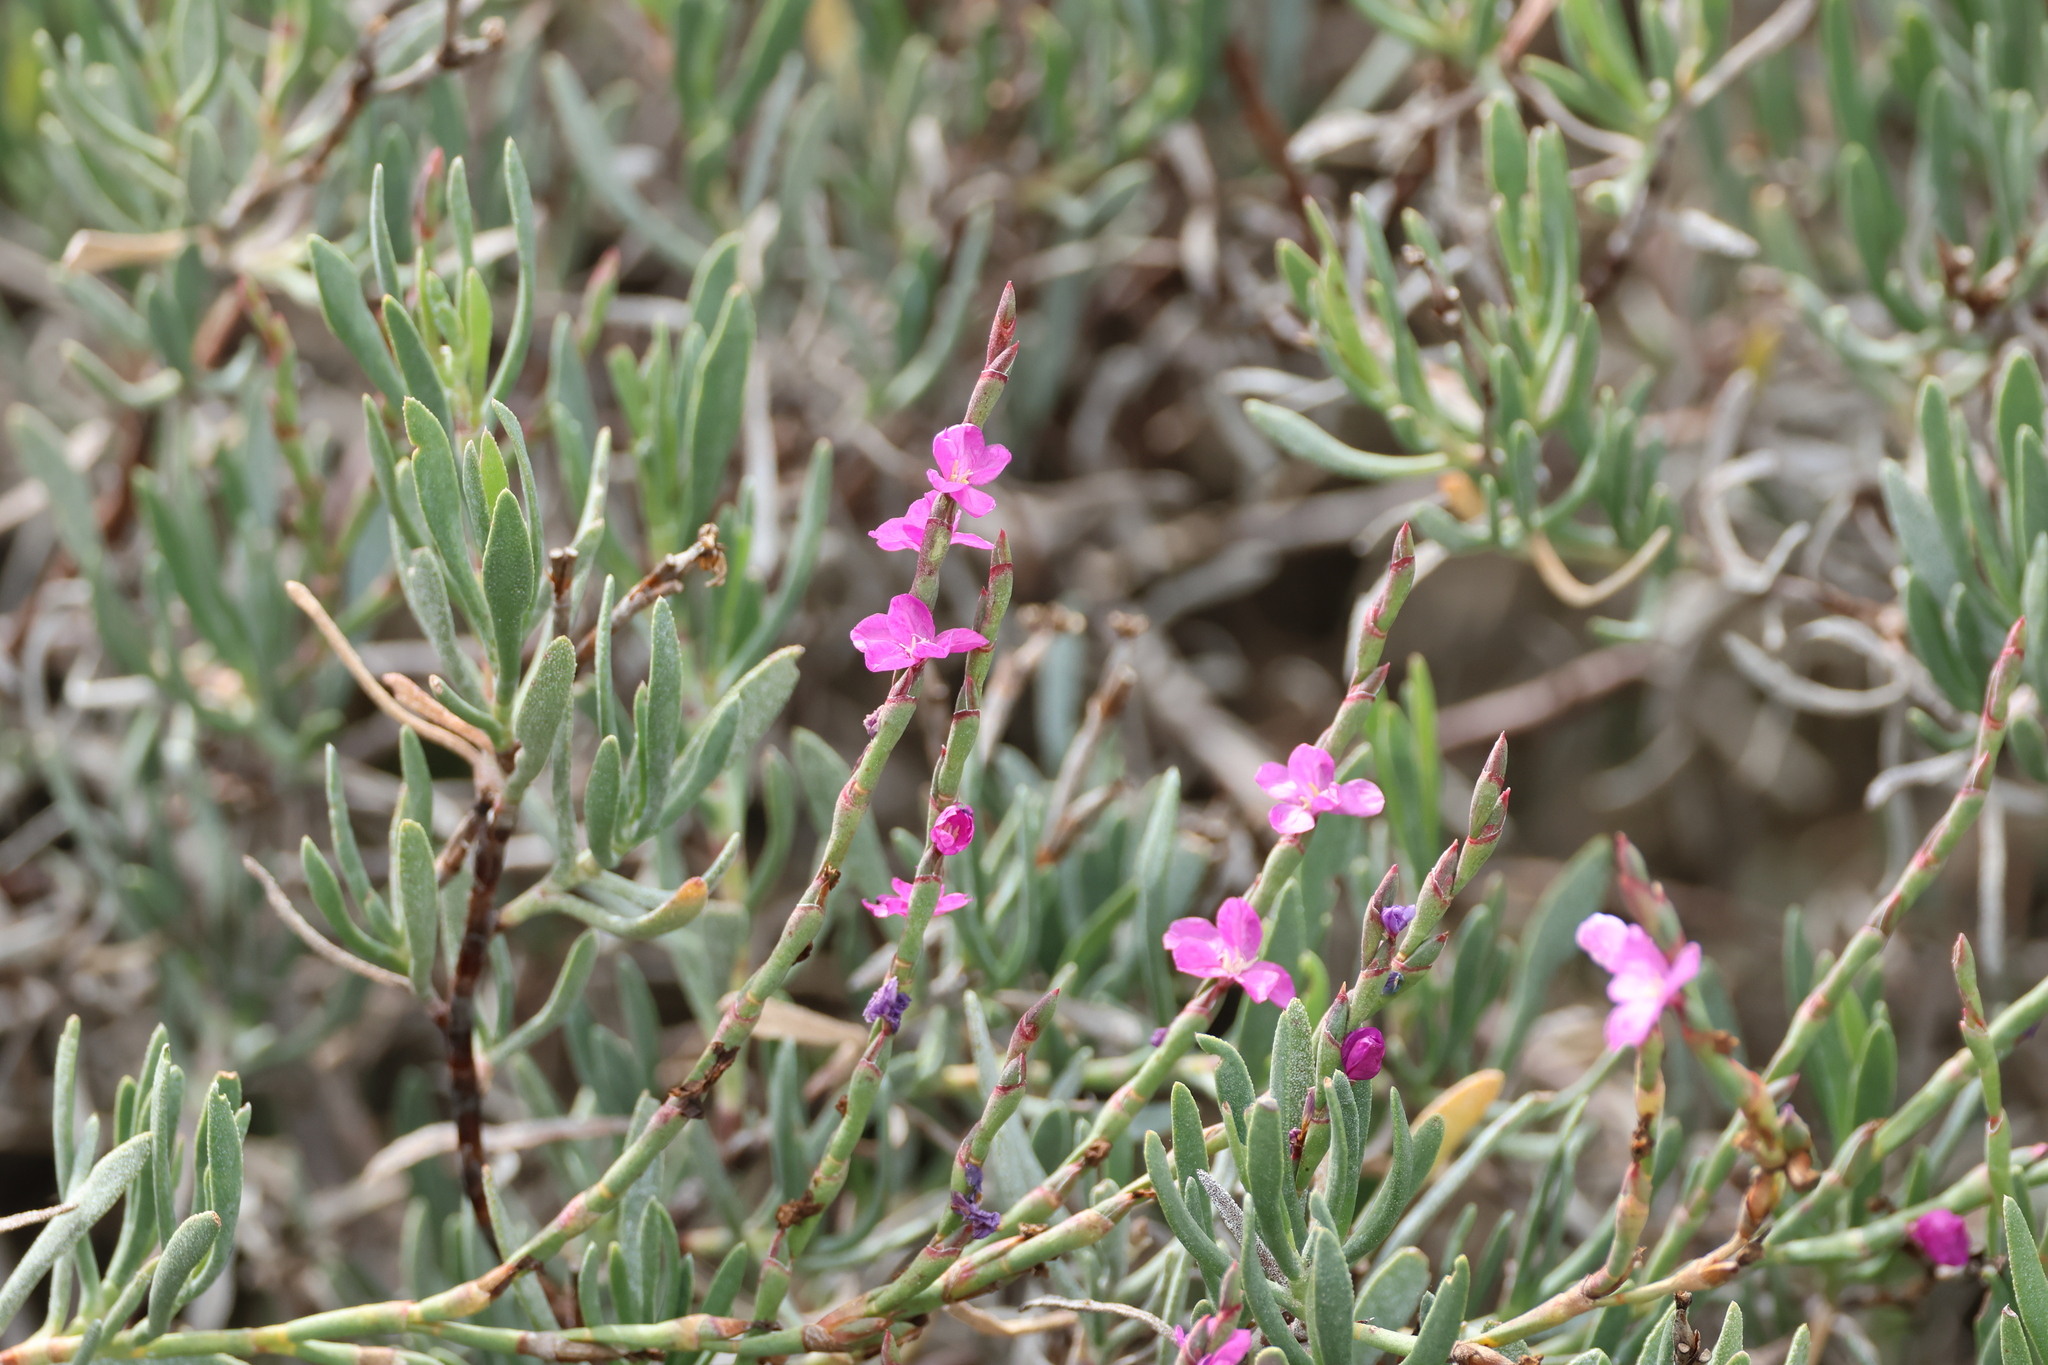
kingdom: Plantae
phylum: Tracheophyta
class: Magnoliopsida
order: Caryophyllales
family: Plumbaginaceae
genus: Limoniastrum
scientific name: Limoniastrum monopetalum
